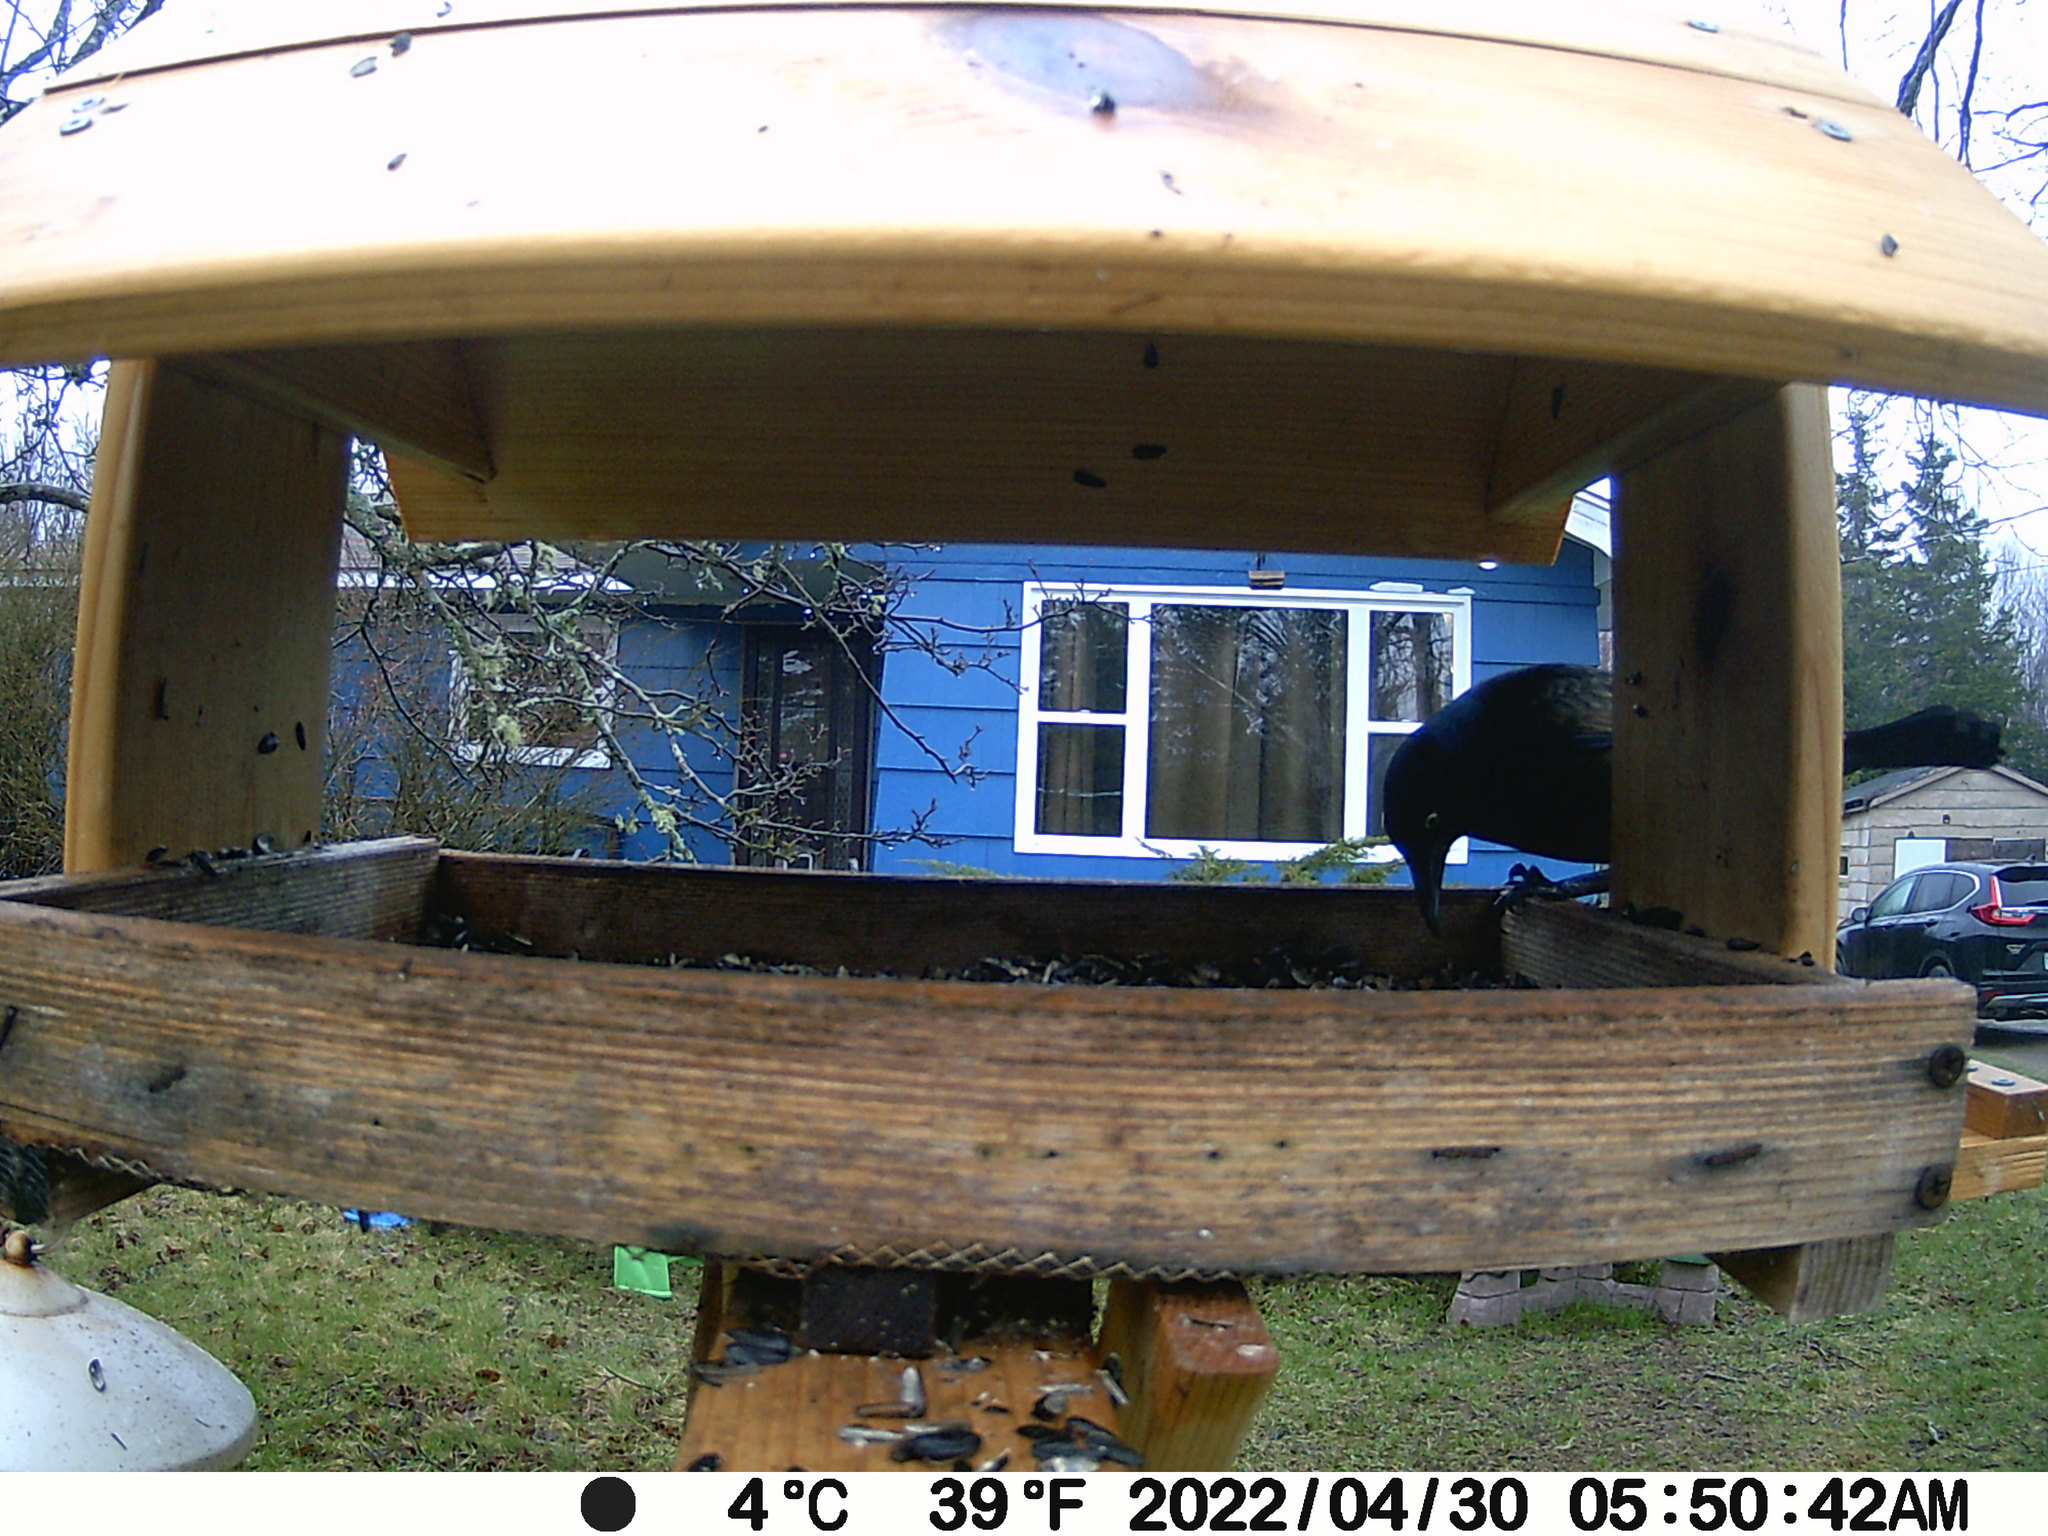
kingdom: Animalia
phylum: Chordata
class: Aves
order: Passeriformes
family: Icteridae
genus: Quiscalus
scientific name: Quiscalus quiscula
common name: Common grackle
